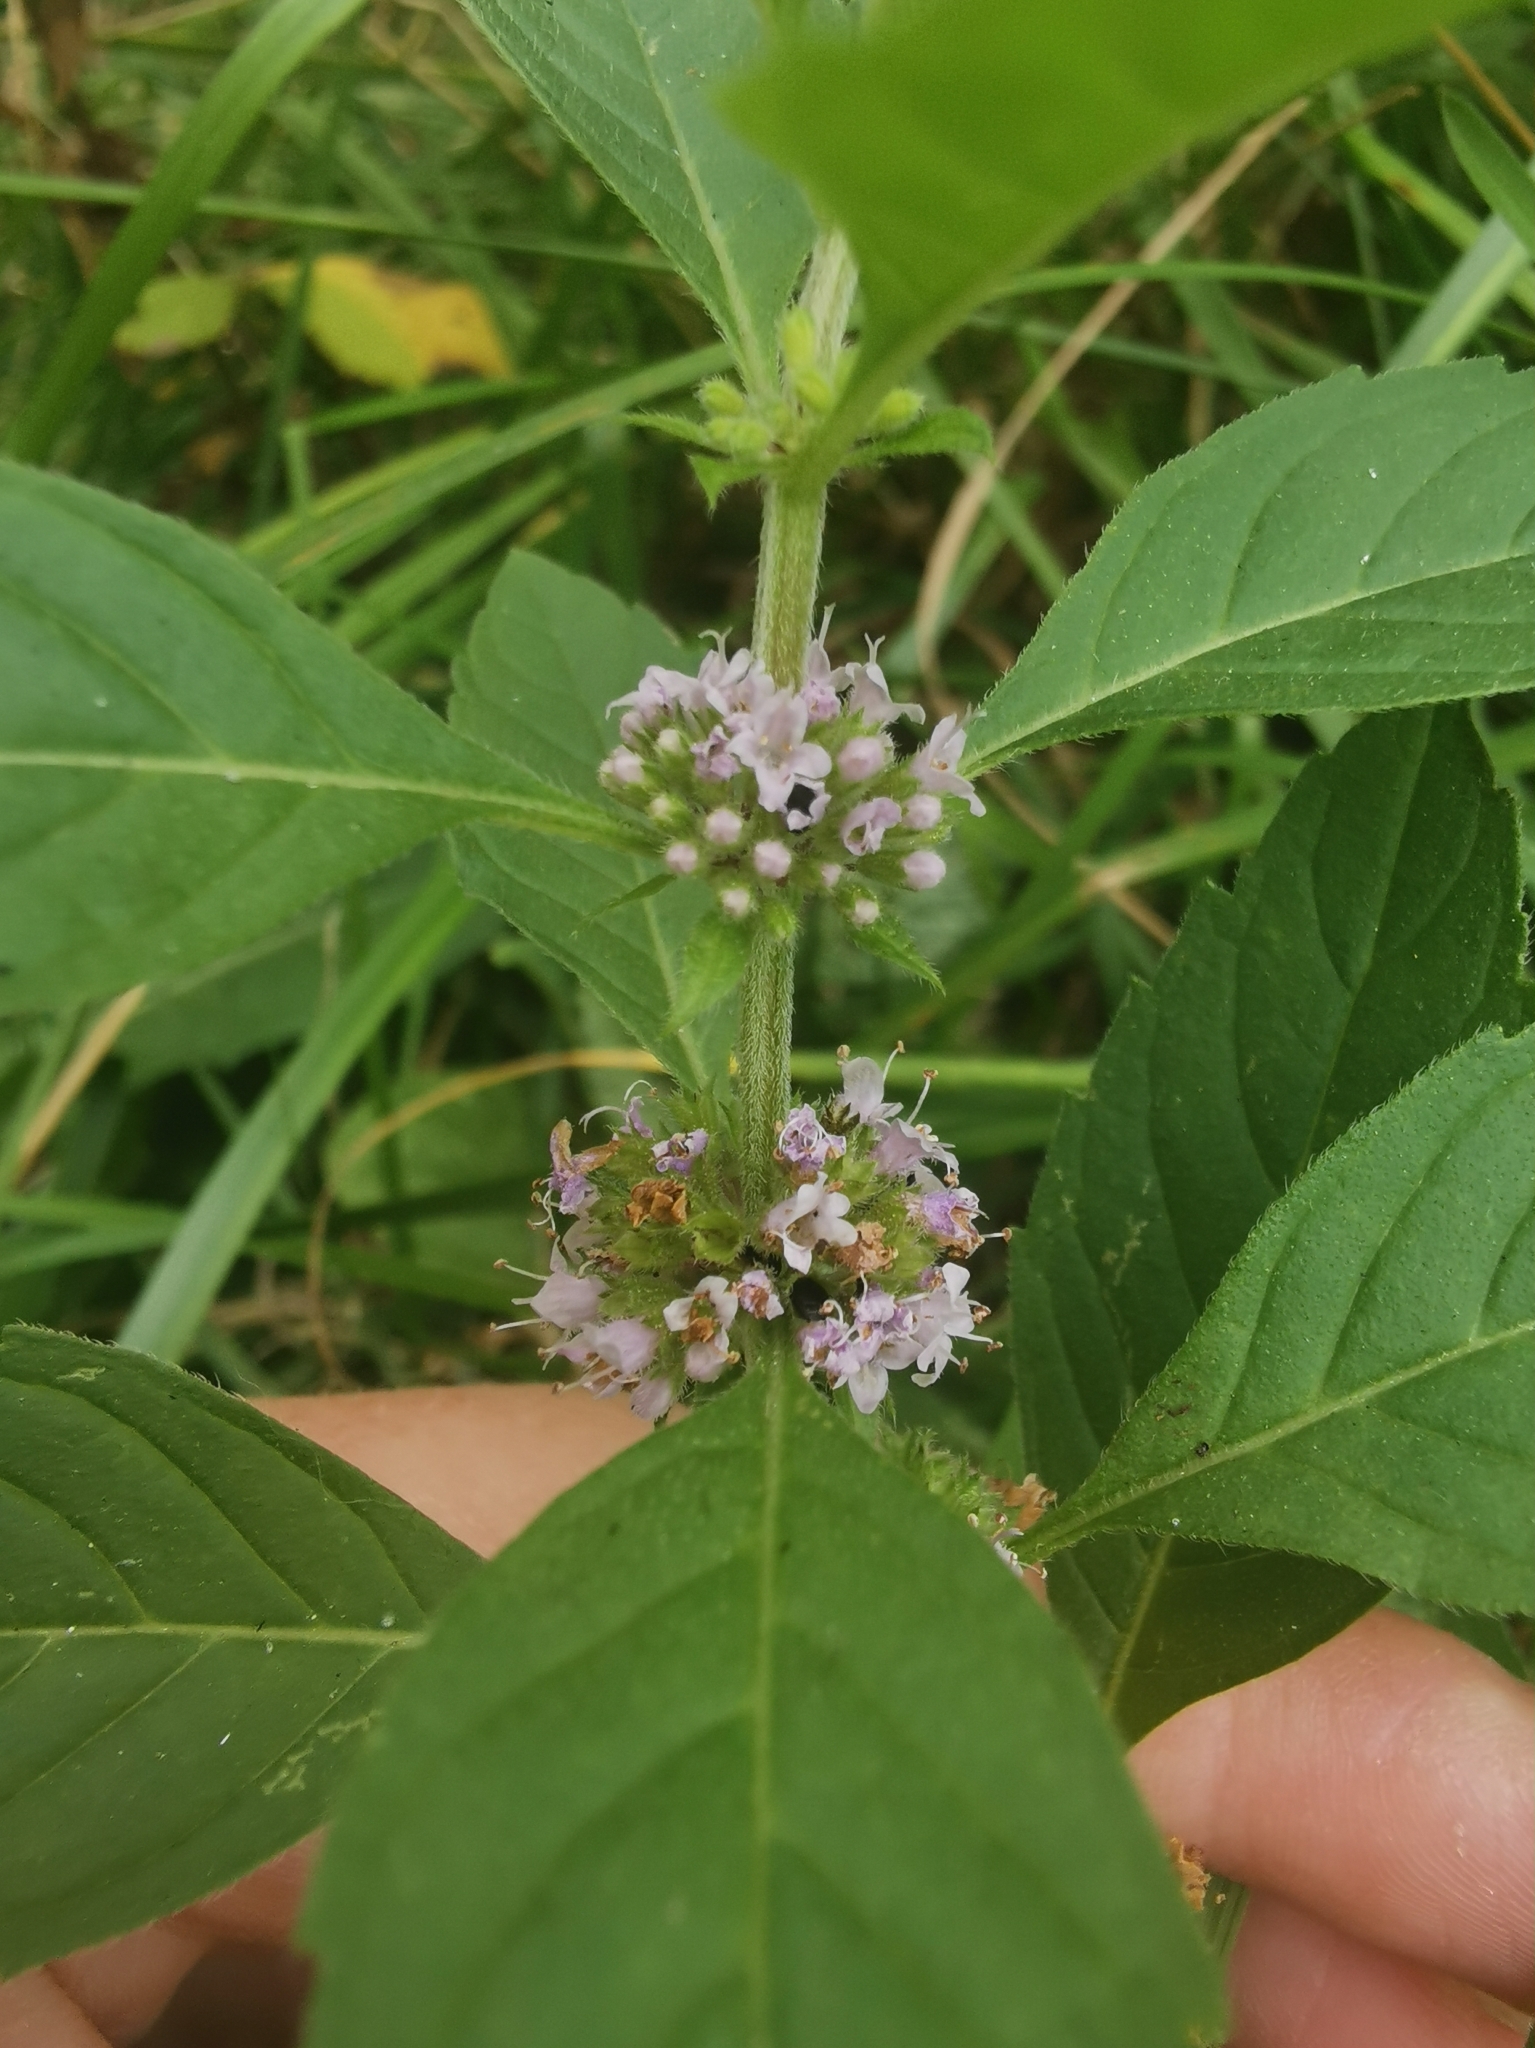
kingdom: Plantae
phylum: Tracheophyta
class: Magnoliopsida
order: Lamiales
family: Lamiaceae
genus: Mentha
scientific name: Mentha arvensis
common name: Corn mint
